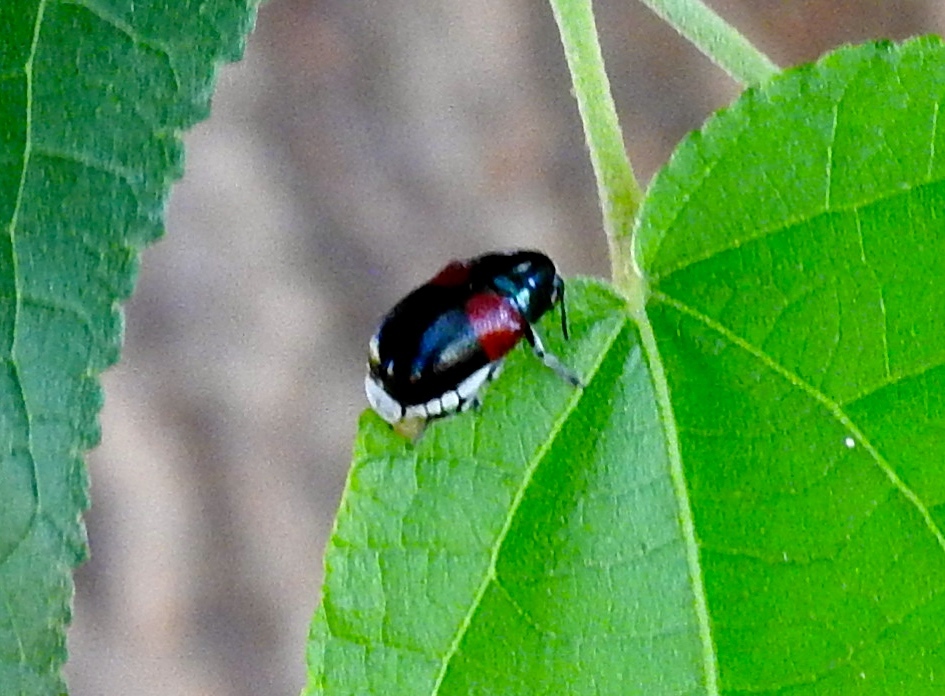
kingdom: Animalia
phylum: Arthropoda
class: Insecta
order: Coleoptera
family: Chrysomelidae
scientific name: Chrysomelidae
